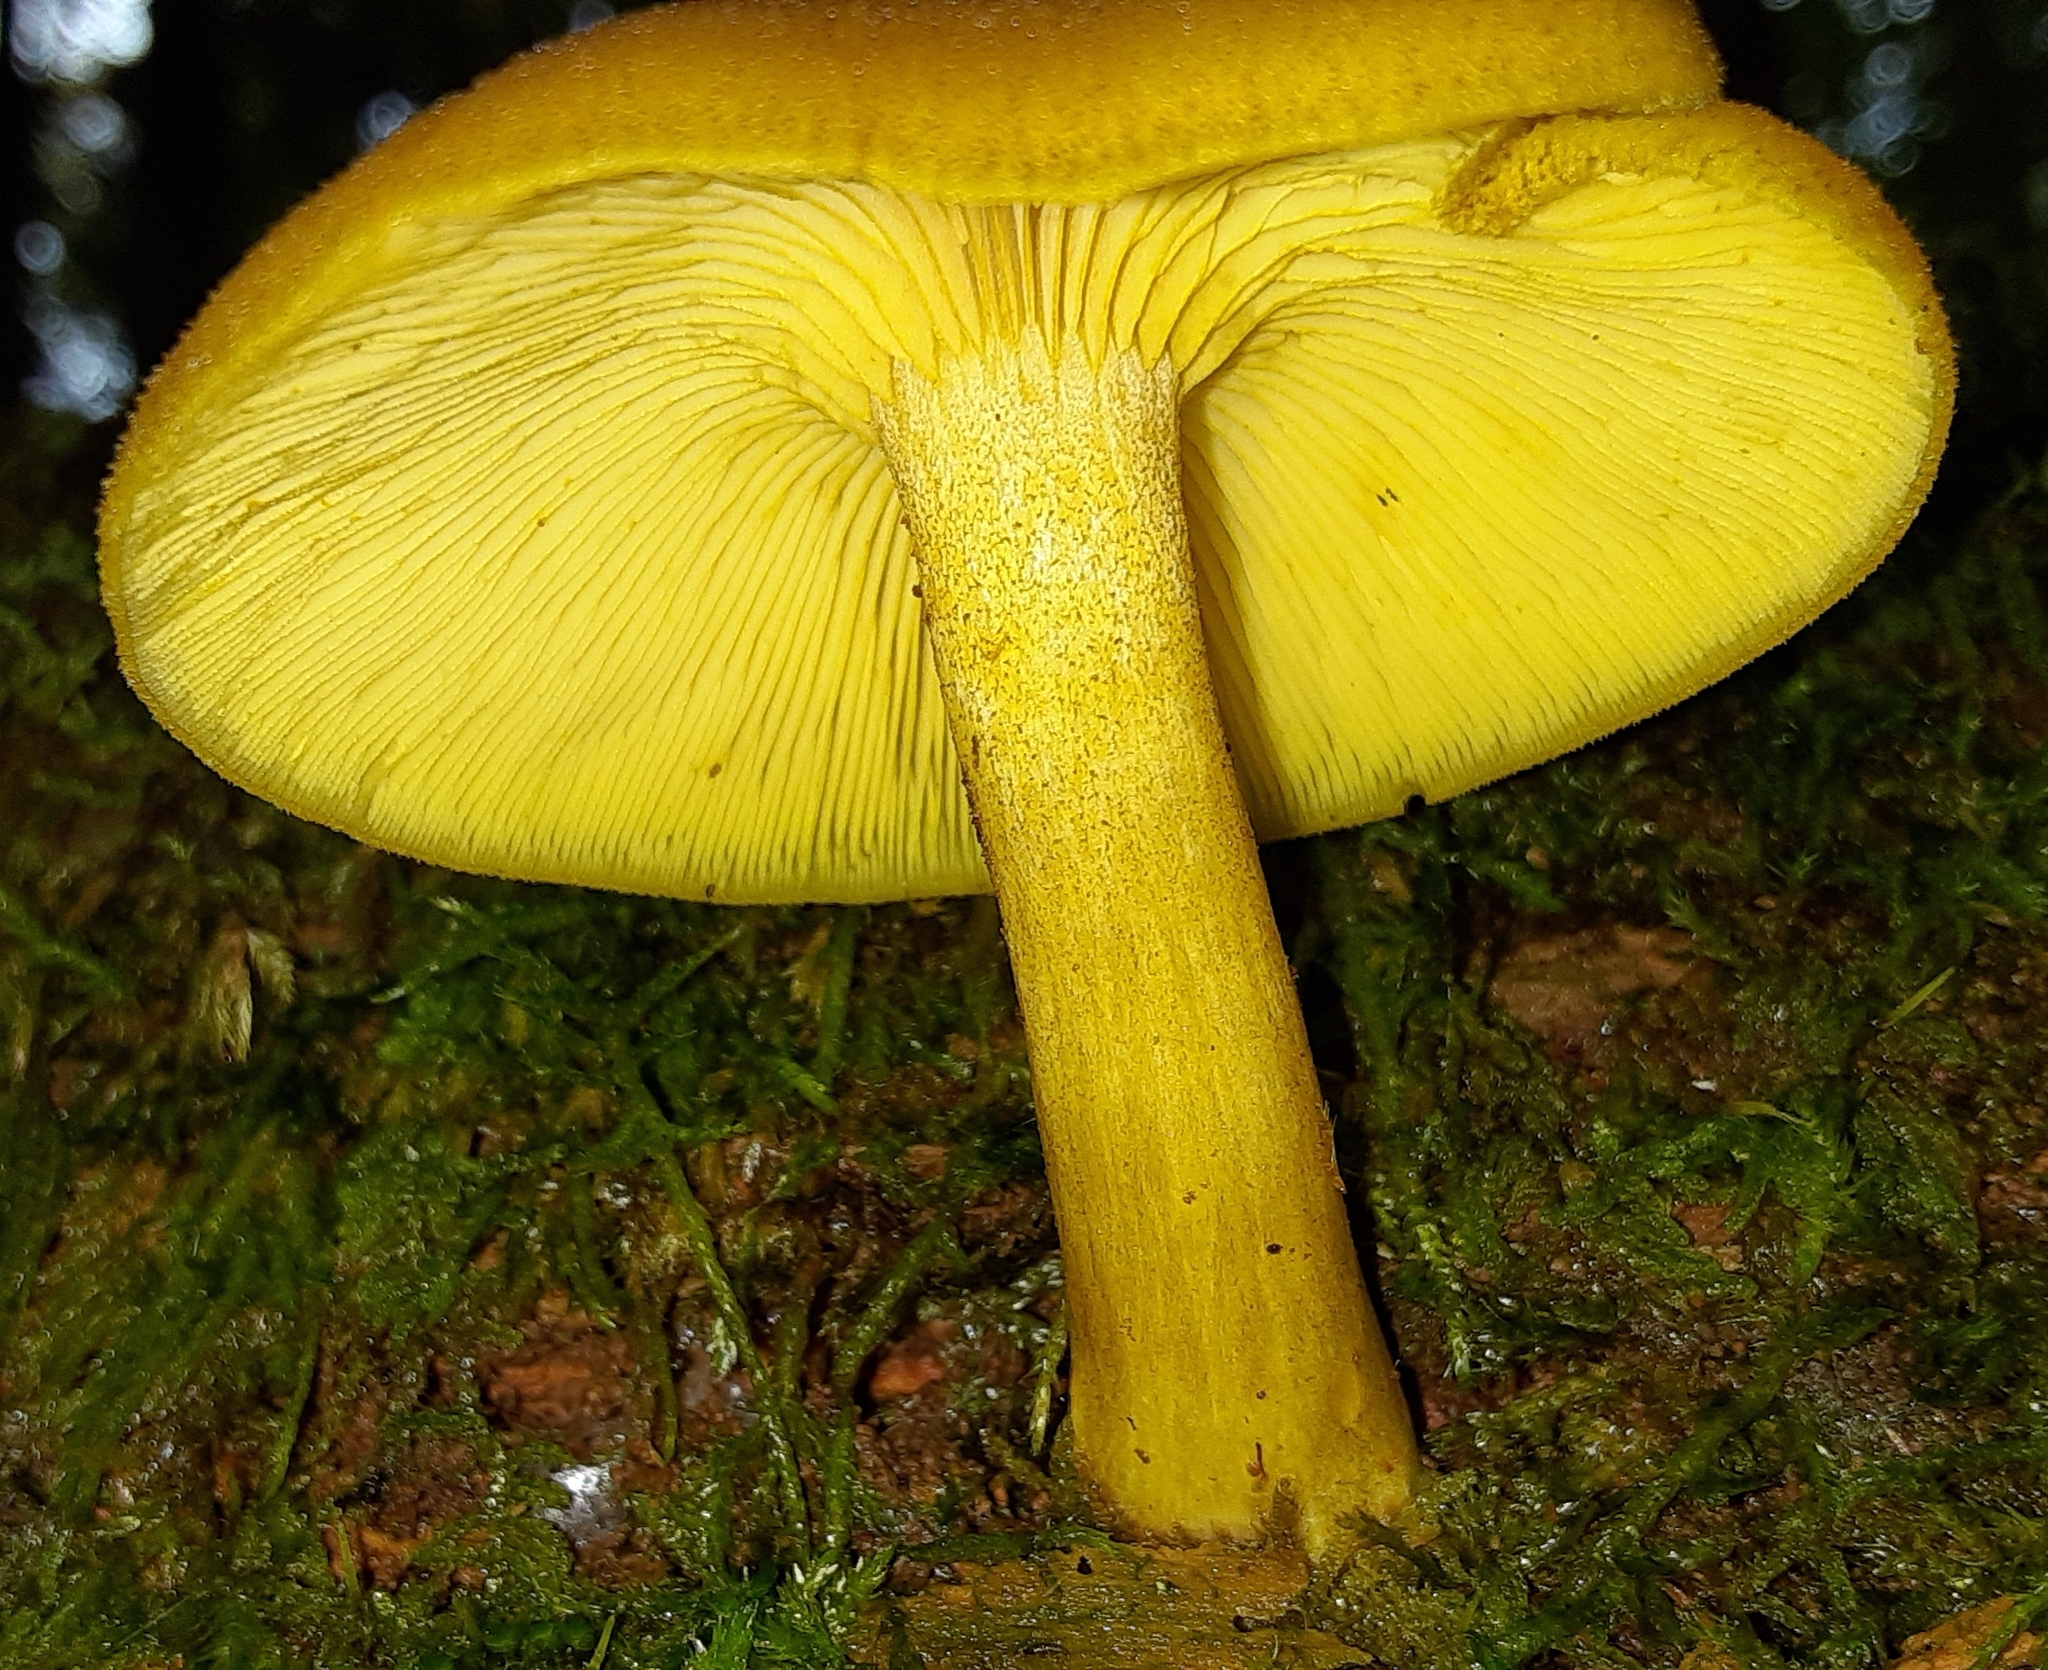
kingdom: Fungi
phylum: Basidiomycota
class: Agaricomycetes
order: Agaricales
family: Tricholomataceae
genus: Tricholomopsis
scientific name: Tricholomopsis decora
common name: Prunes and custard
